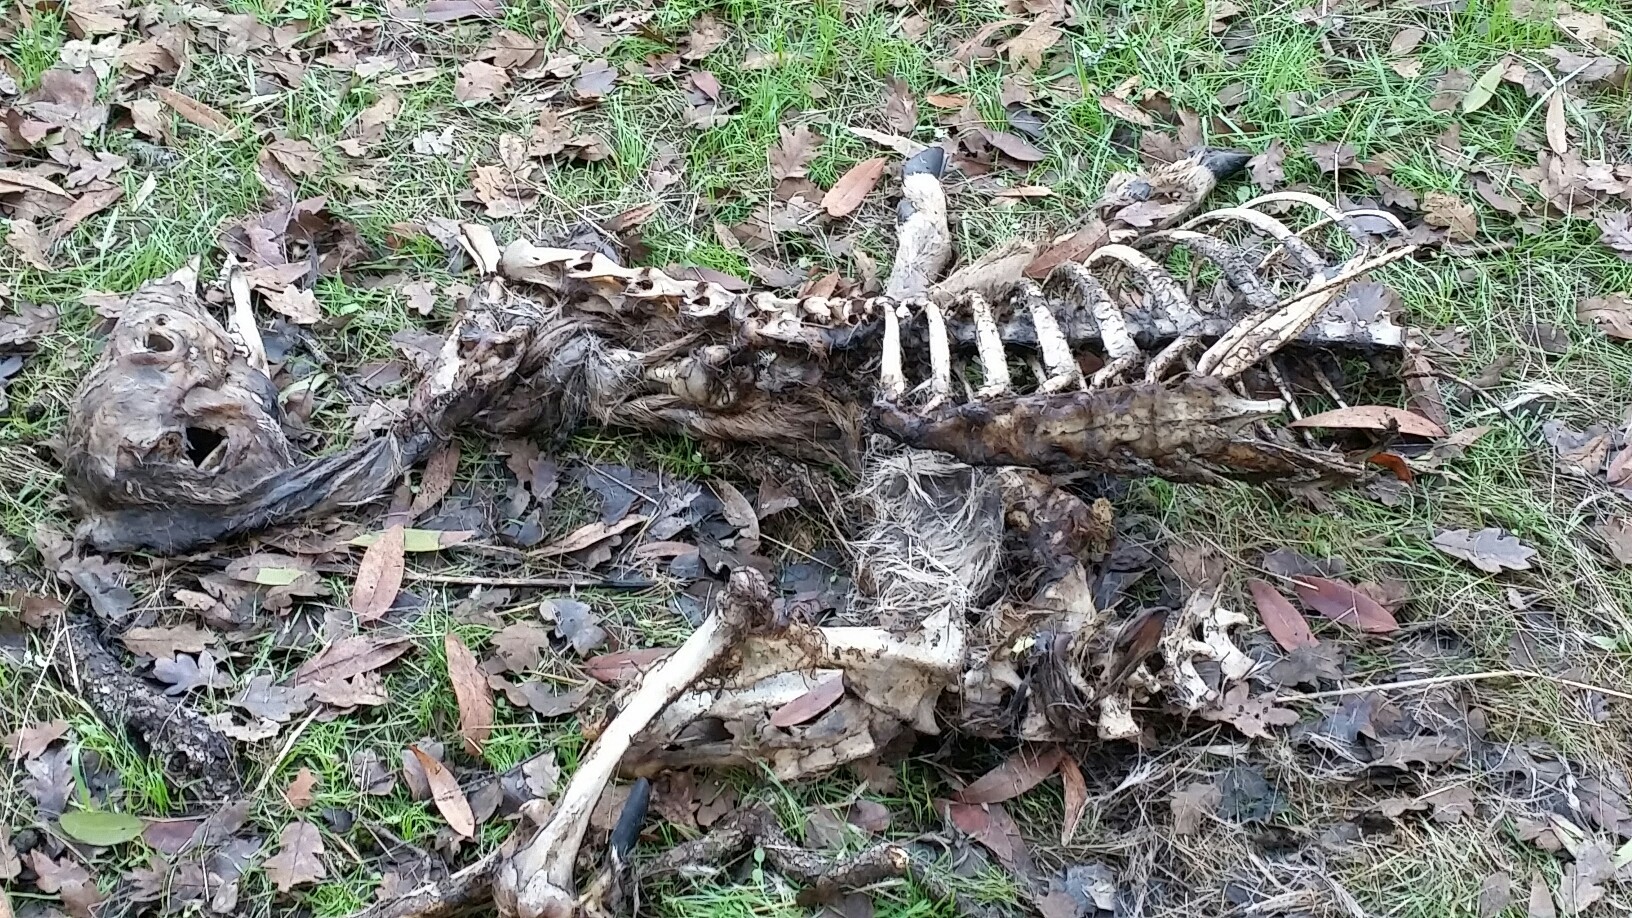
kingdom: Animalia
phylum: Chordata
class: Mammalia
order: Artiodactyla
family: Cervidae
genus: Odocoileus
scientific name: Odocoileus hemionus
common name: Mule deer
